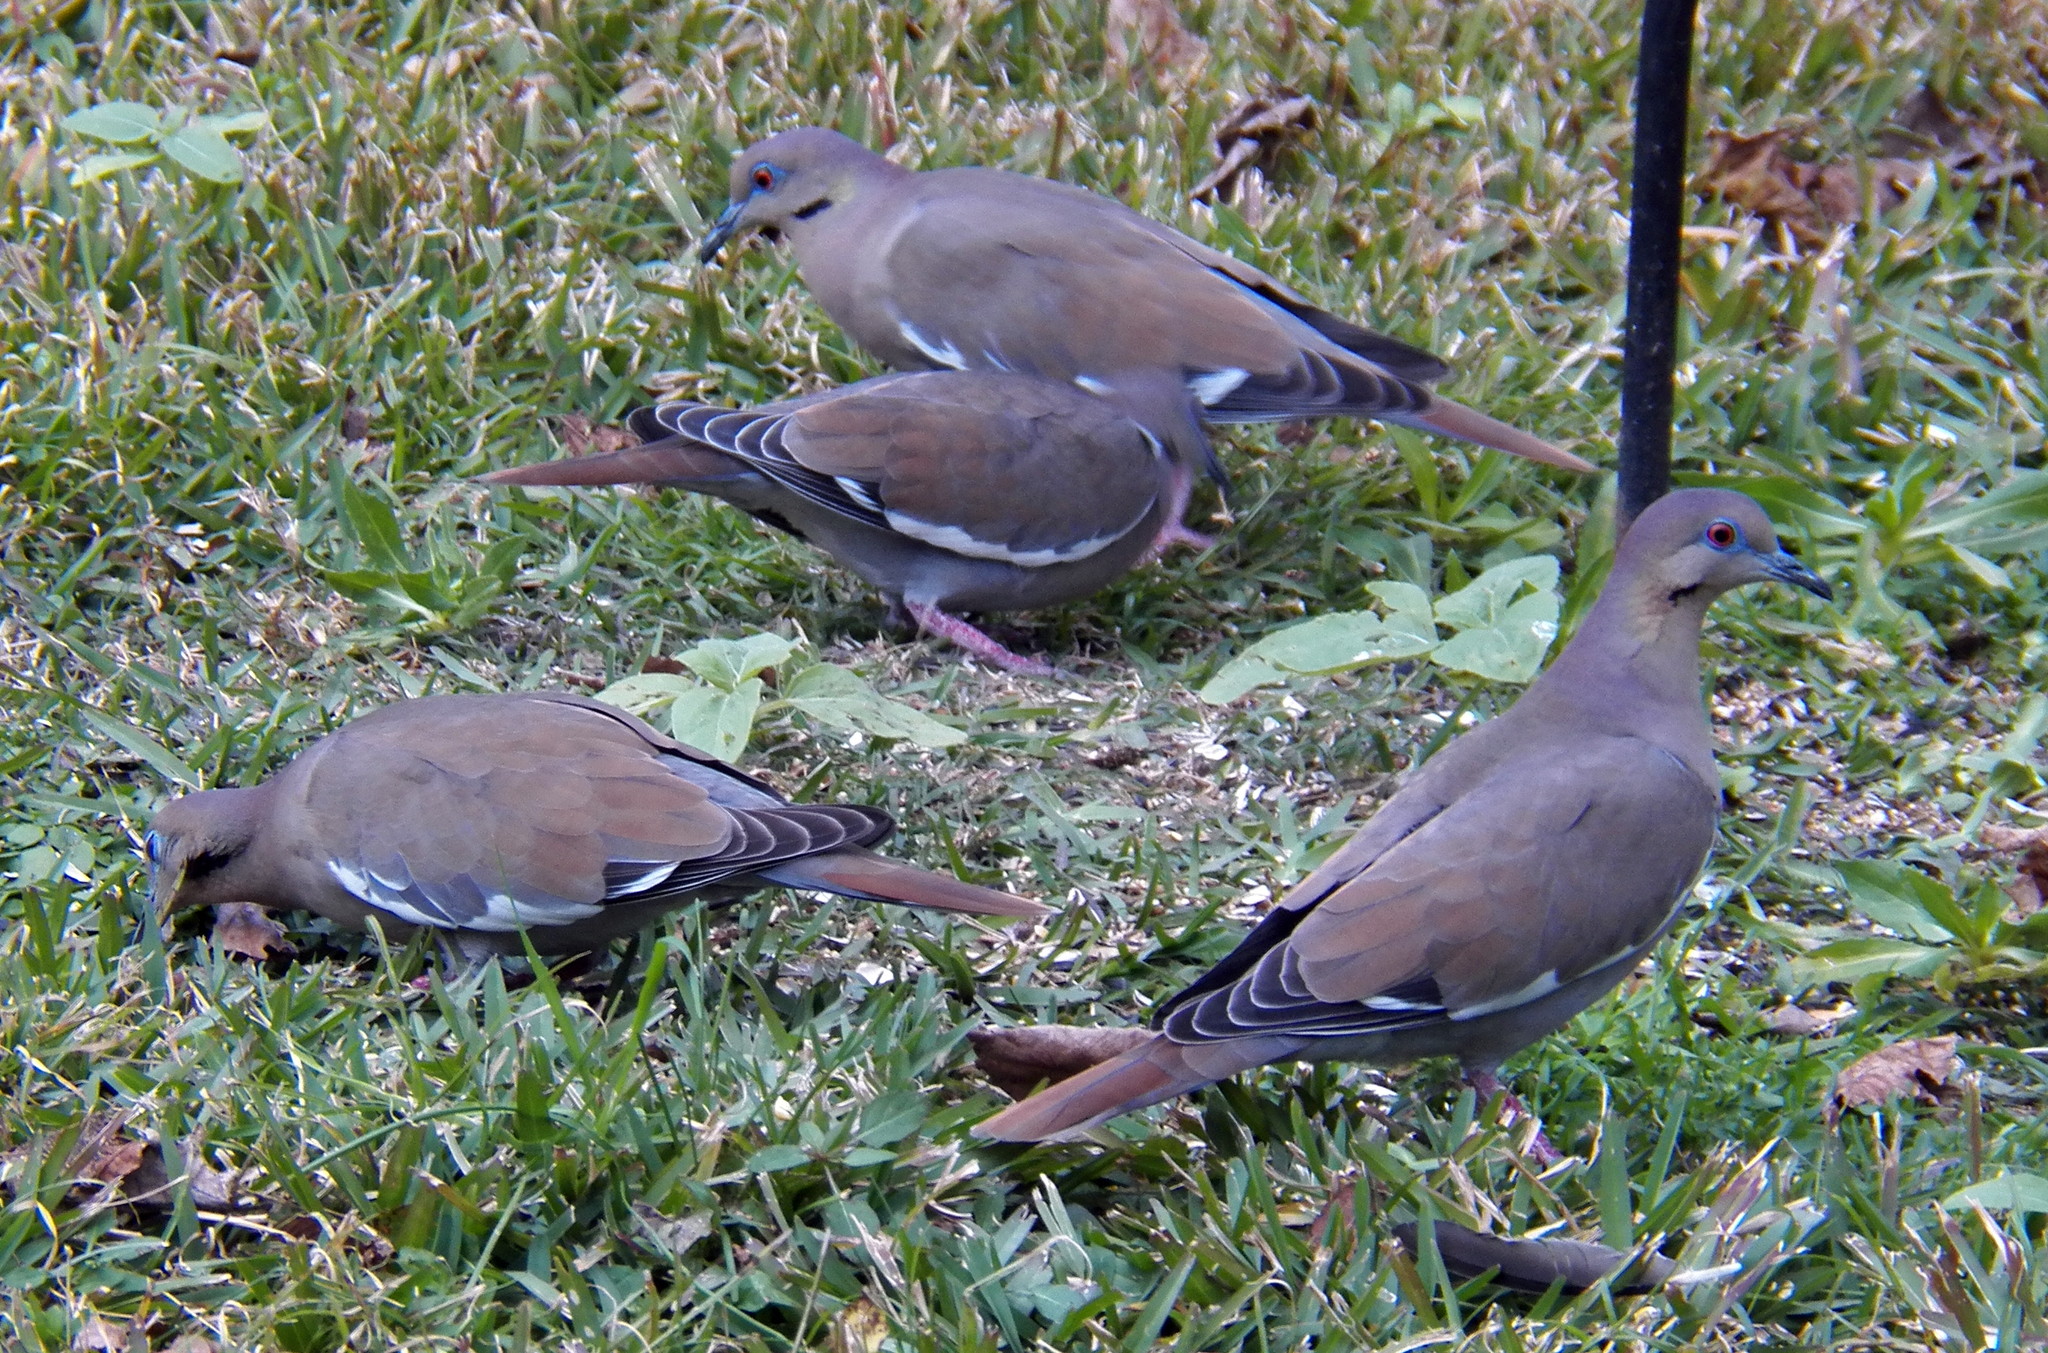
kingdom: Animalia
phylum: Chordata
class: Aves
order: Columbiformes
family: Columbidae
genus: Zenaida
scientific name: Zenaida asiatica
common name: White-winged dove
